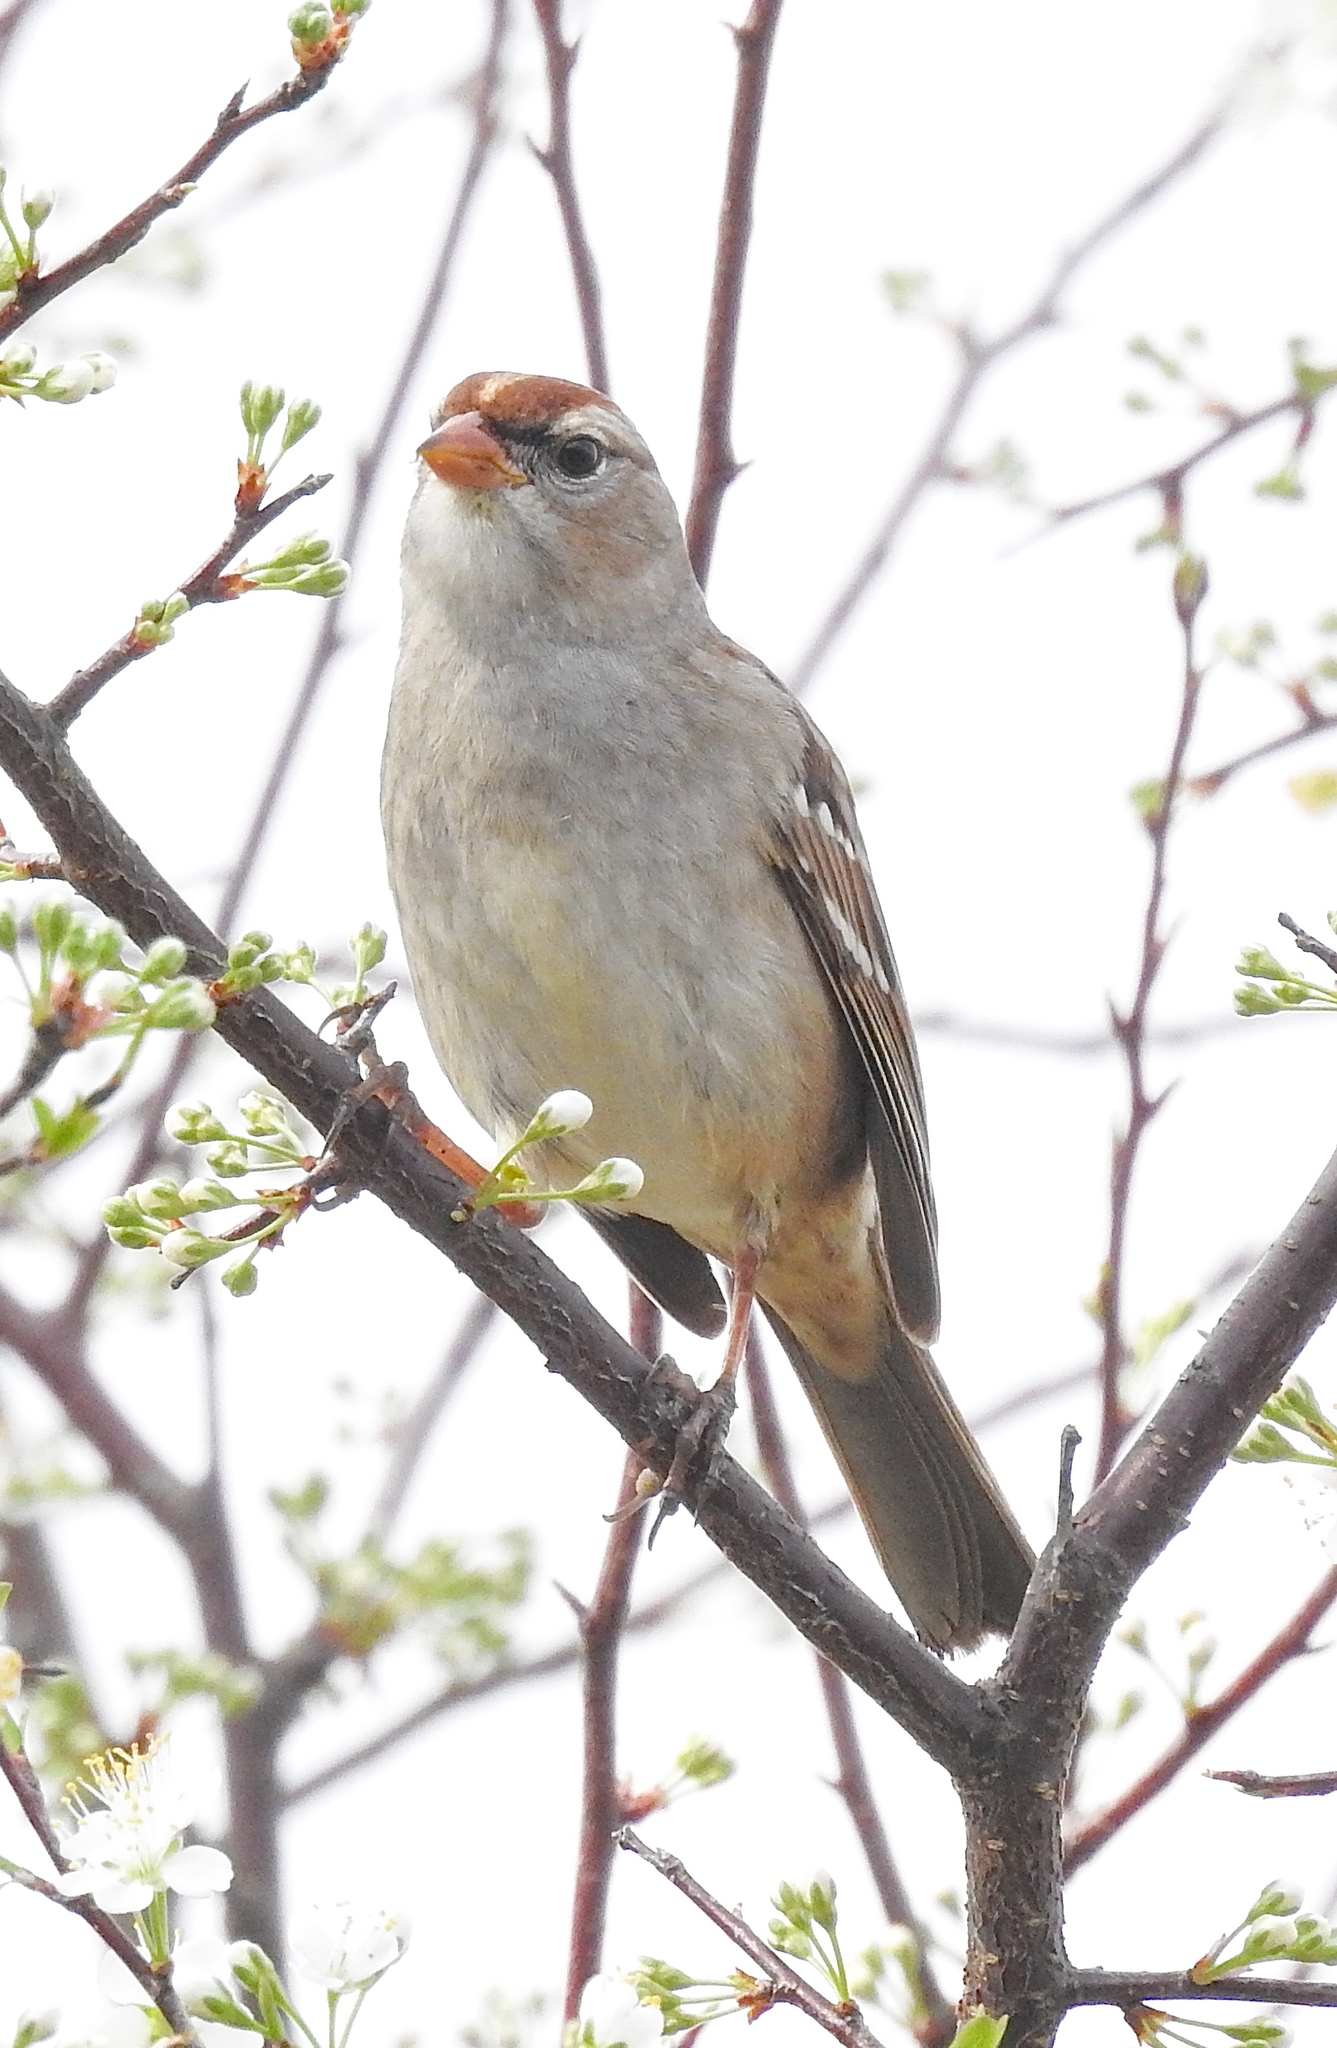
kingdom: Animalia
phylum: Chordata
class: Aves
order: Passeriformes
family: Passerellidae
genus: Zonotrichia
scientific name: Zonotrichia leucophrys
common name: White-crowned sparrow
